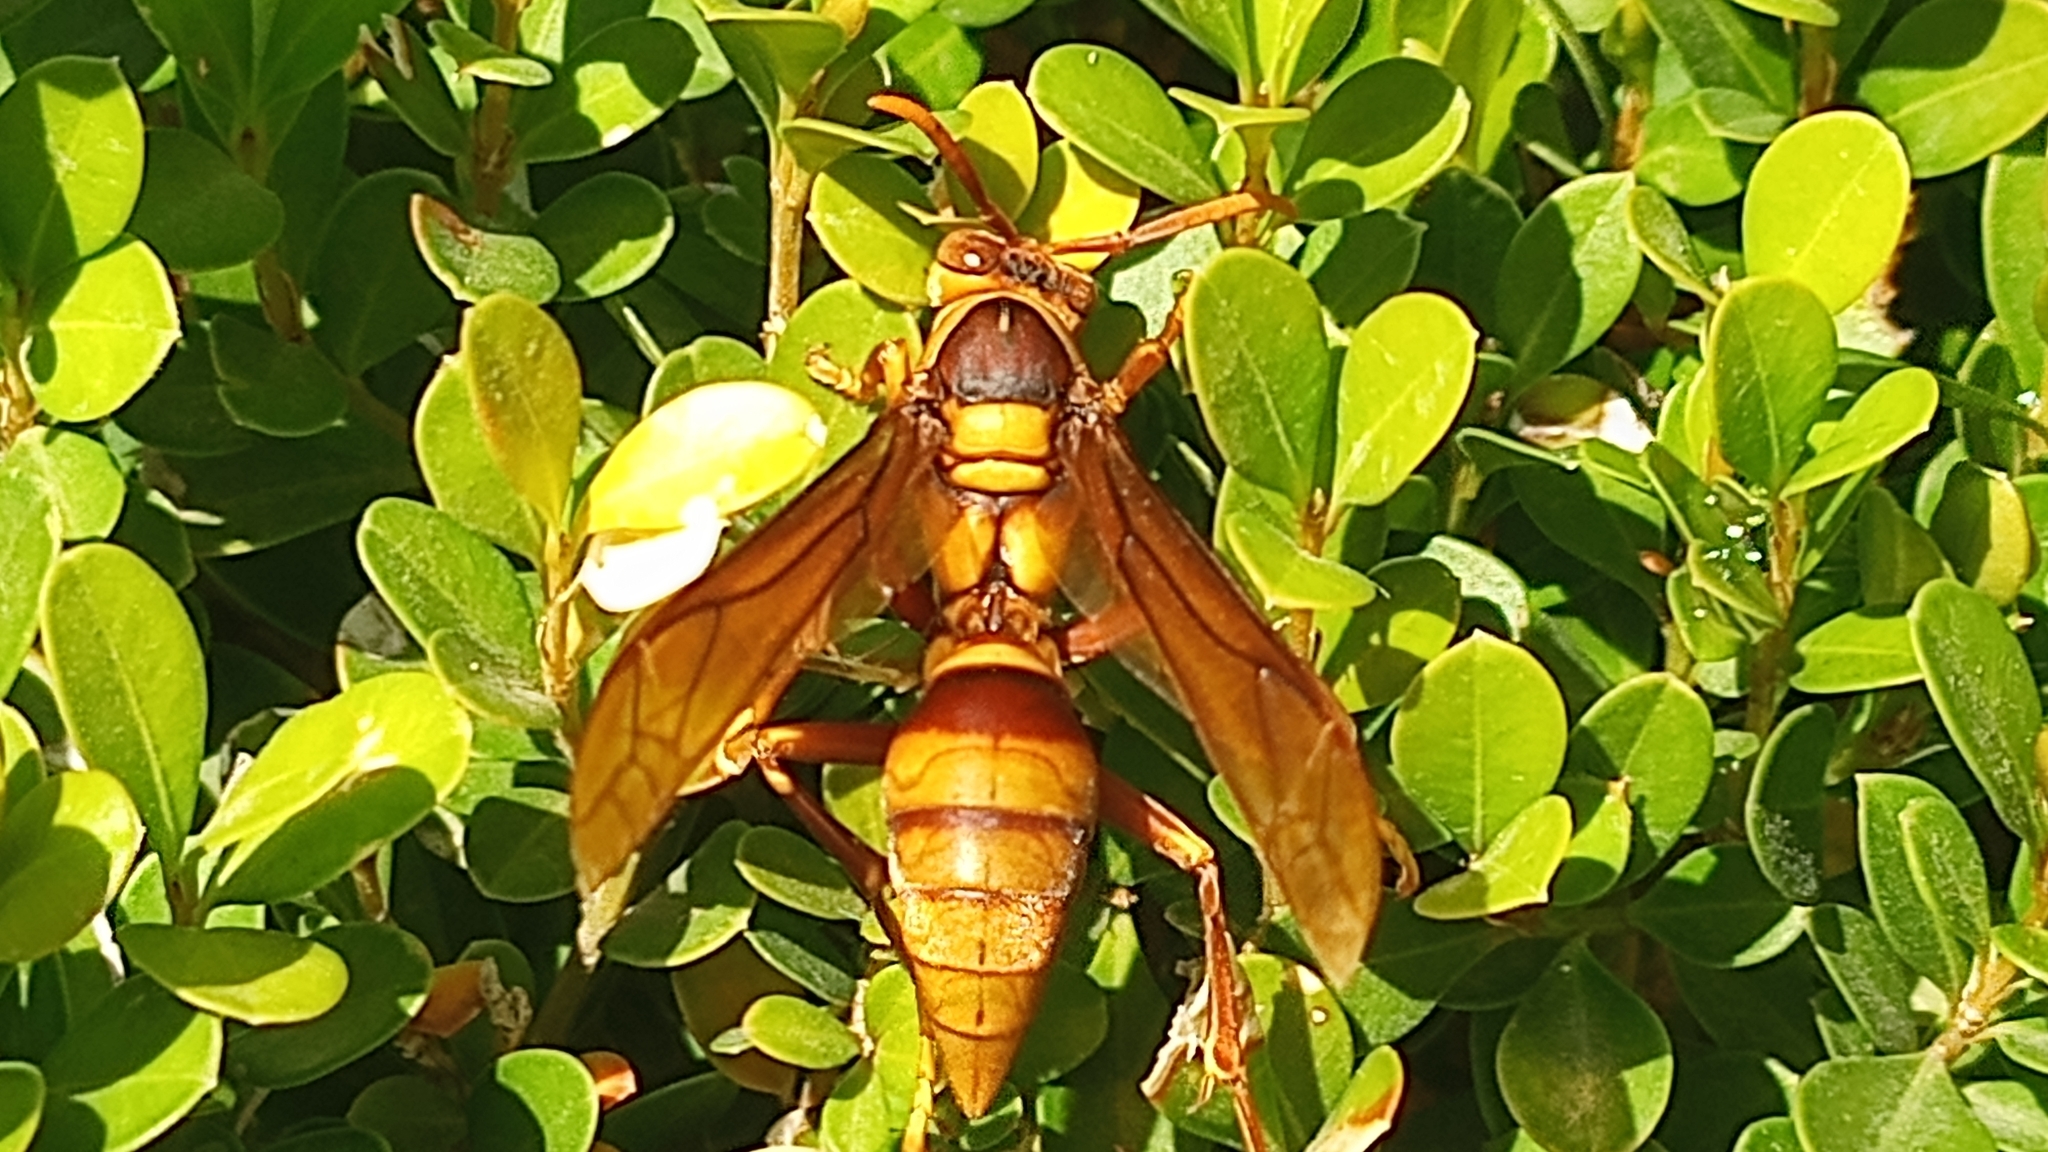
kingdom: Animalia
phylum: Arthropoda
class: Insecta
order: Hymenoptera
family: Eumenidae
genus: Polistes
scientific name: Polistes carnifex
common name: Paper wasp
